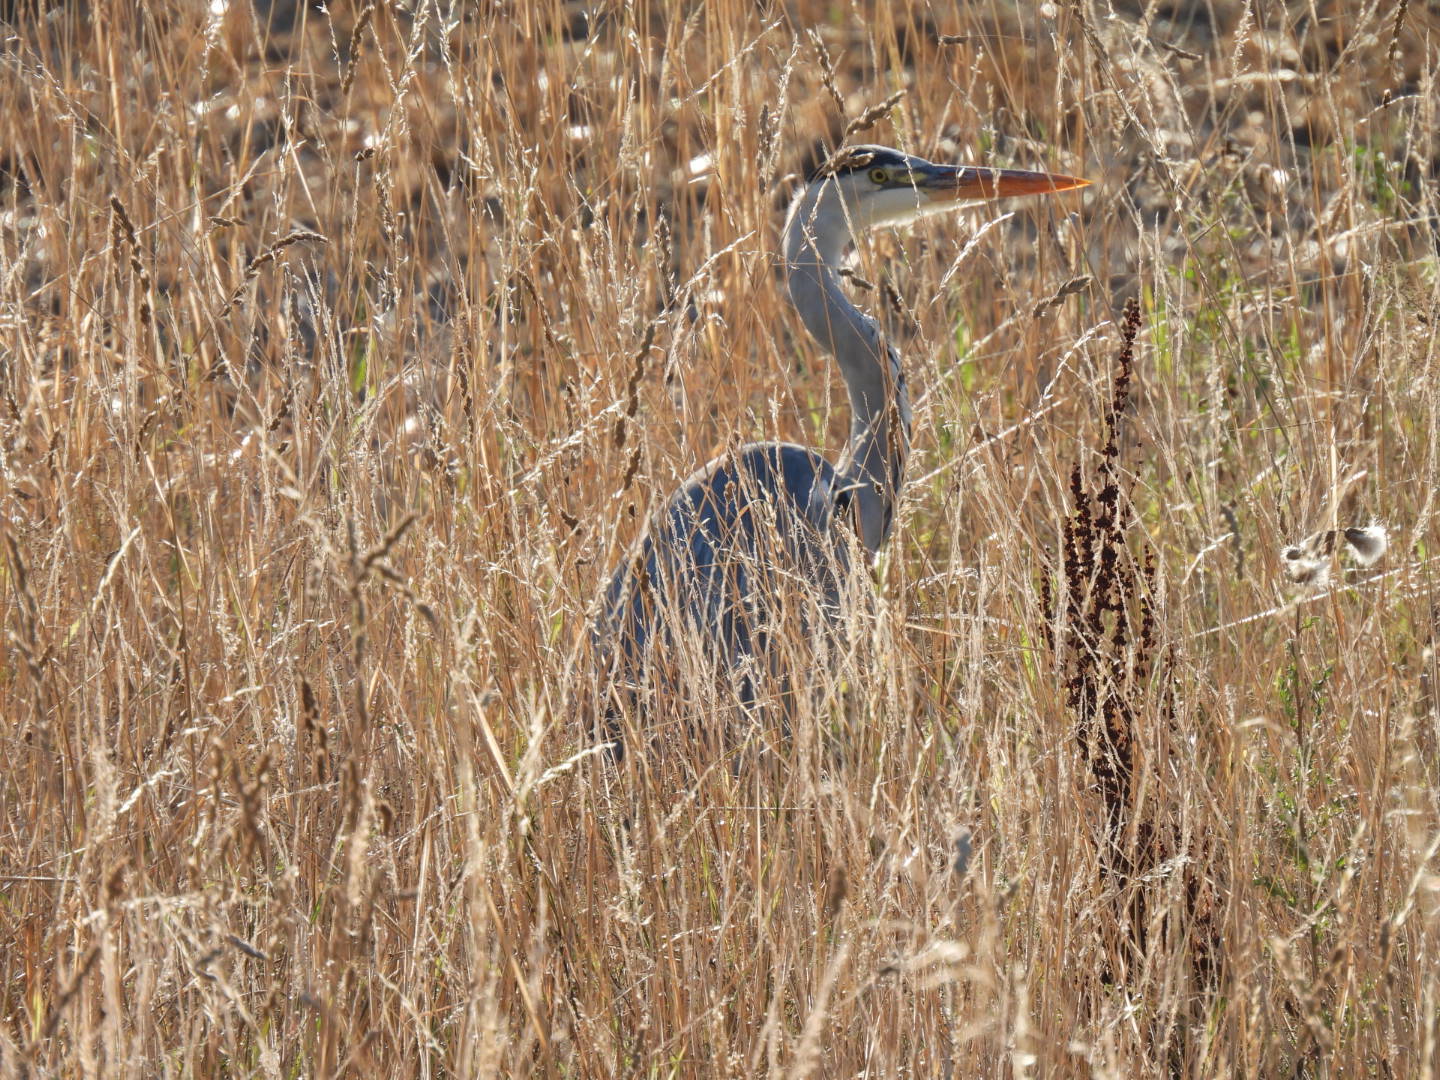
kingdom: Animalia
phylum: Chordata
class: Aves
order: Pelecaniformes
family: Ardeidae
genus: Ardea
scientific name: Ardea cinerea
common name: Grey heron
